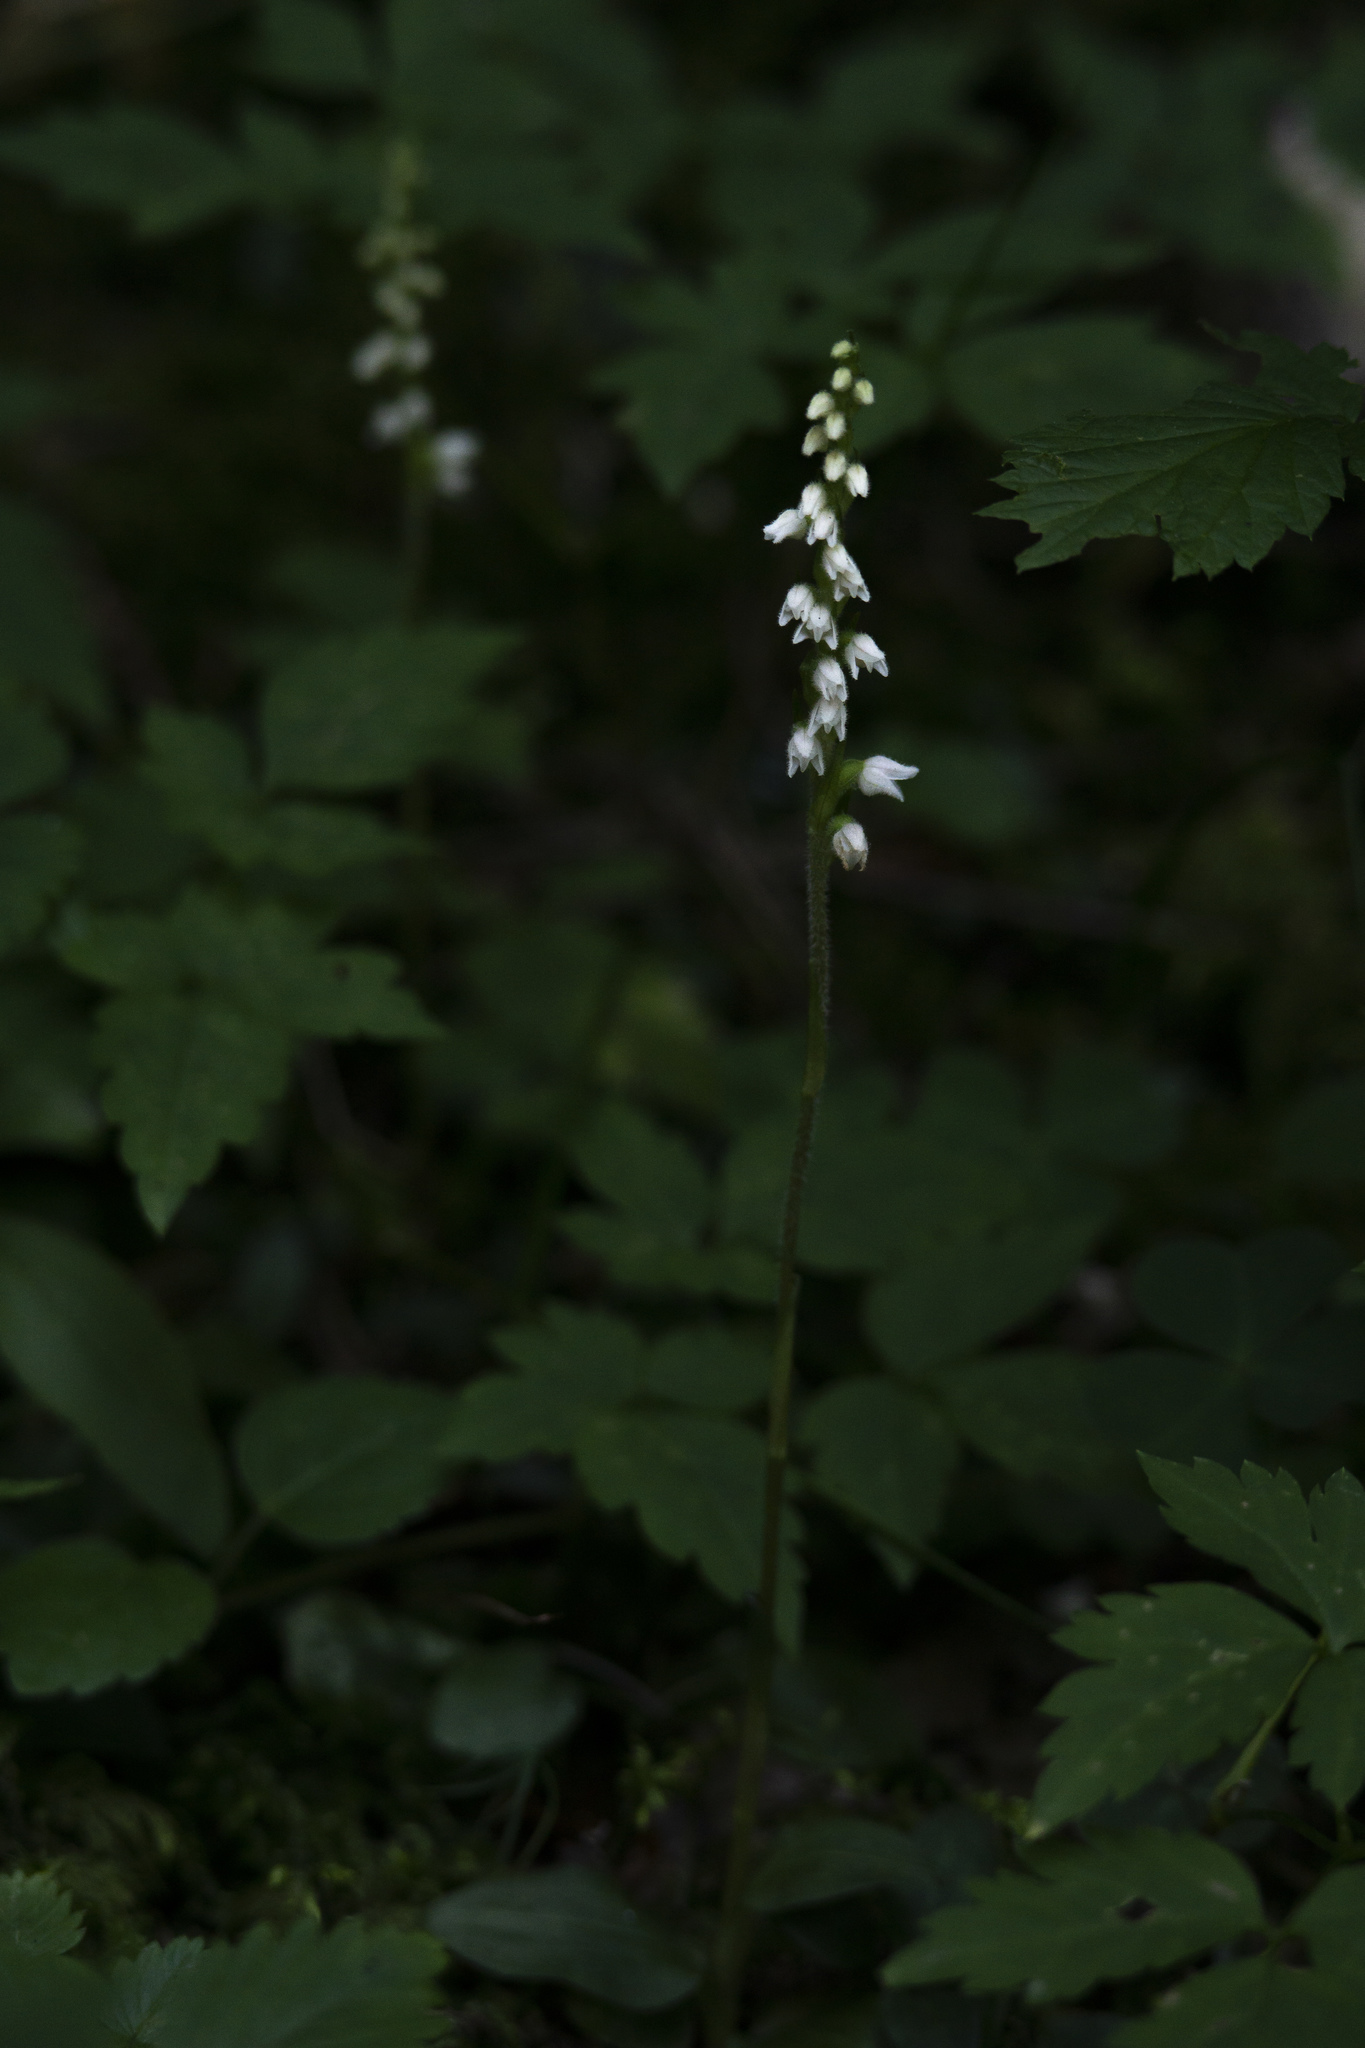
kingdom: Plantae
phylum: Tracheophyta
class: Liliopsida
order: Asparagales
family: Orchidaceae
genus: Goodyera
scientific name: Goodyera repens
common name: Creeping lady's-tresses
